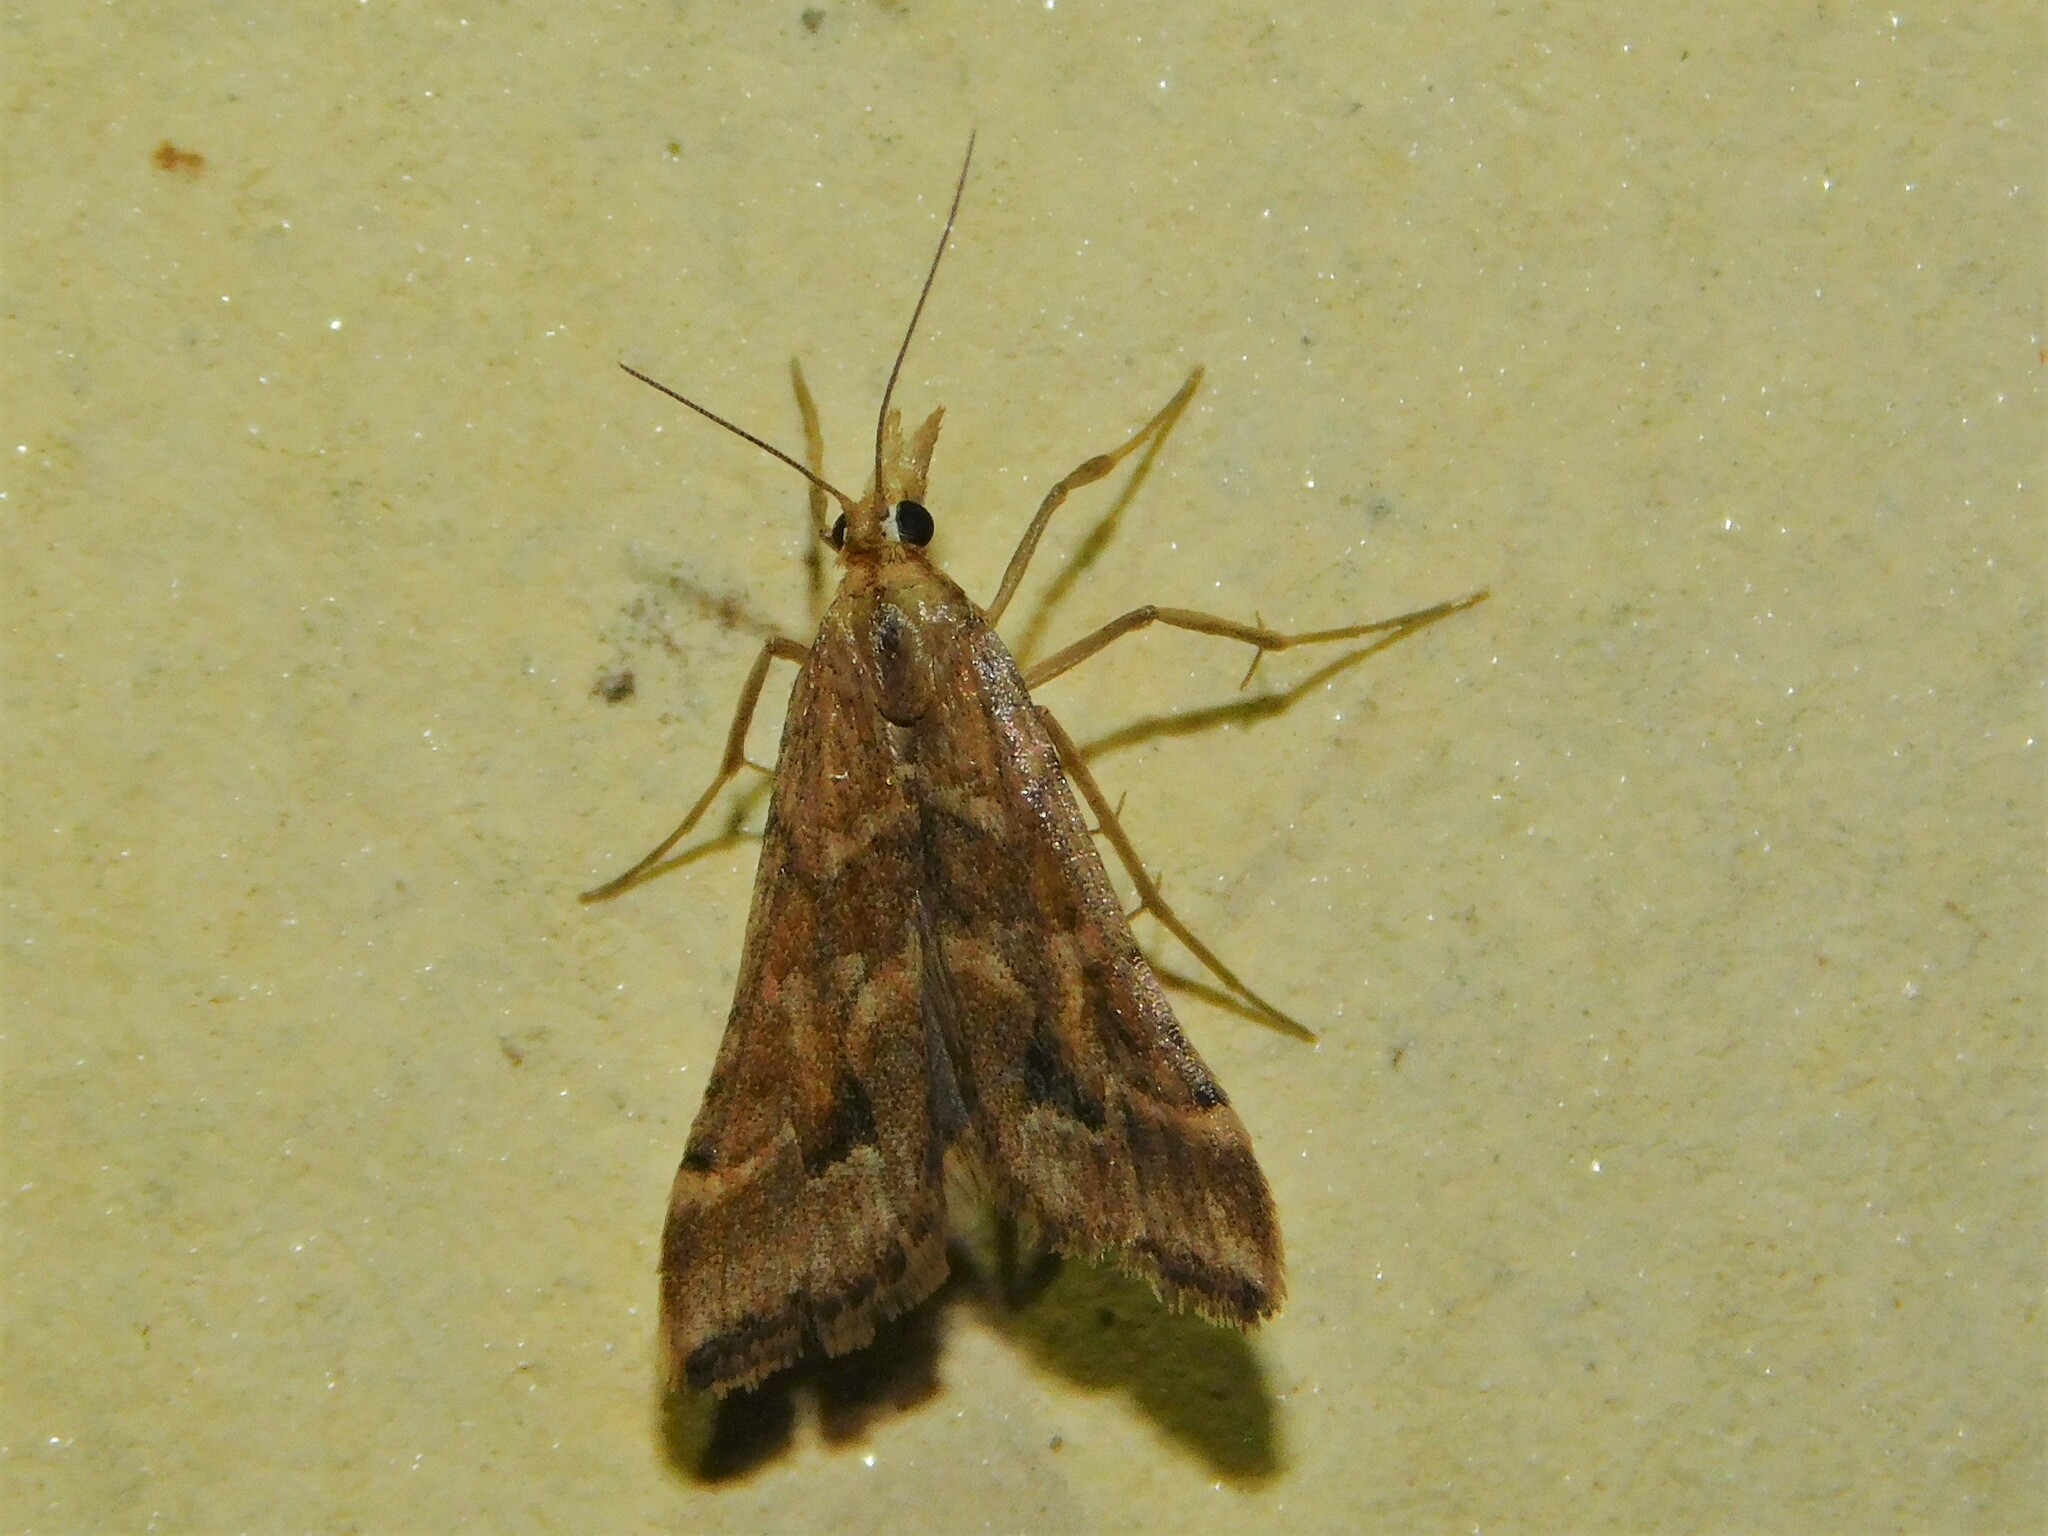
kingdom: Animalia
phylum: Arthropoda
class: Insecta
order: Lepidoptera
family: Crambidae
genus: Diasemia
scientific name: Diasemia monostigma
